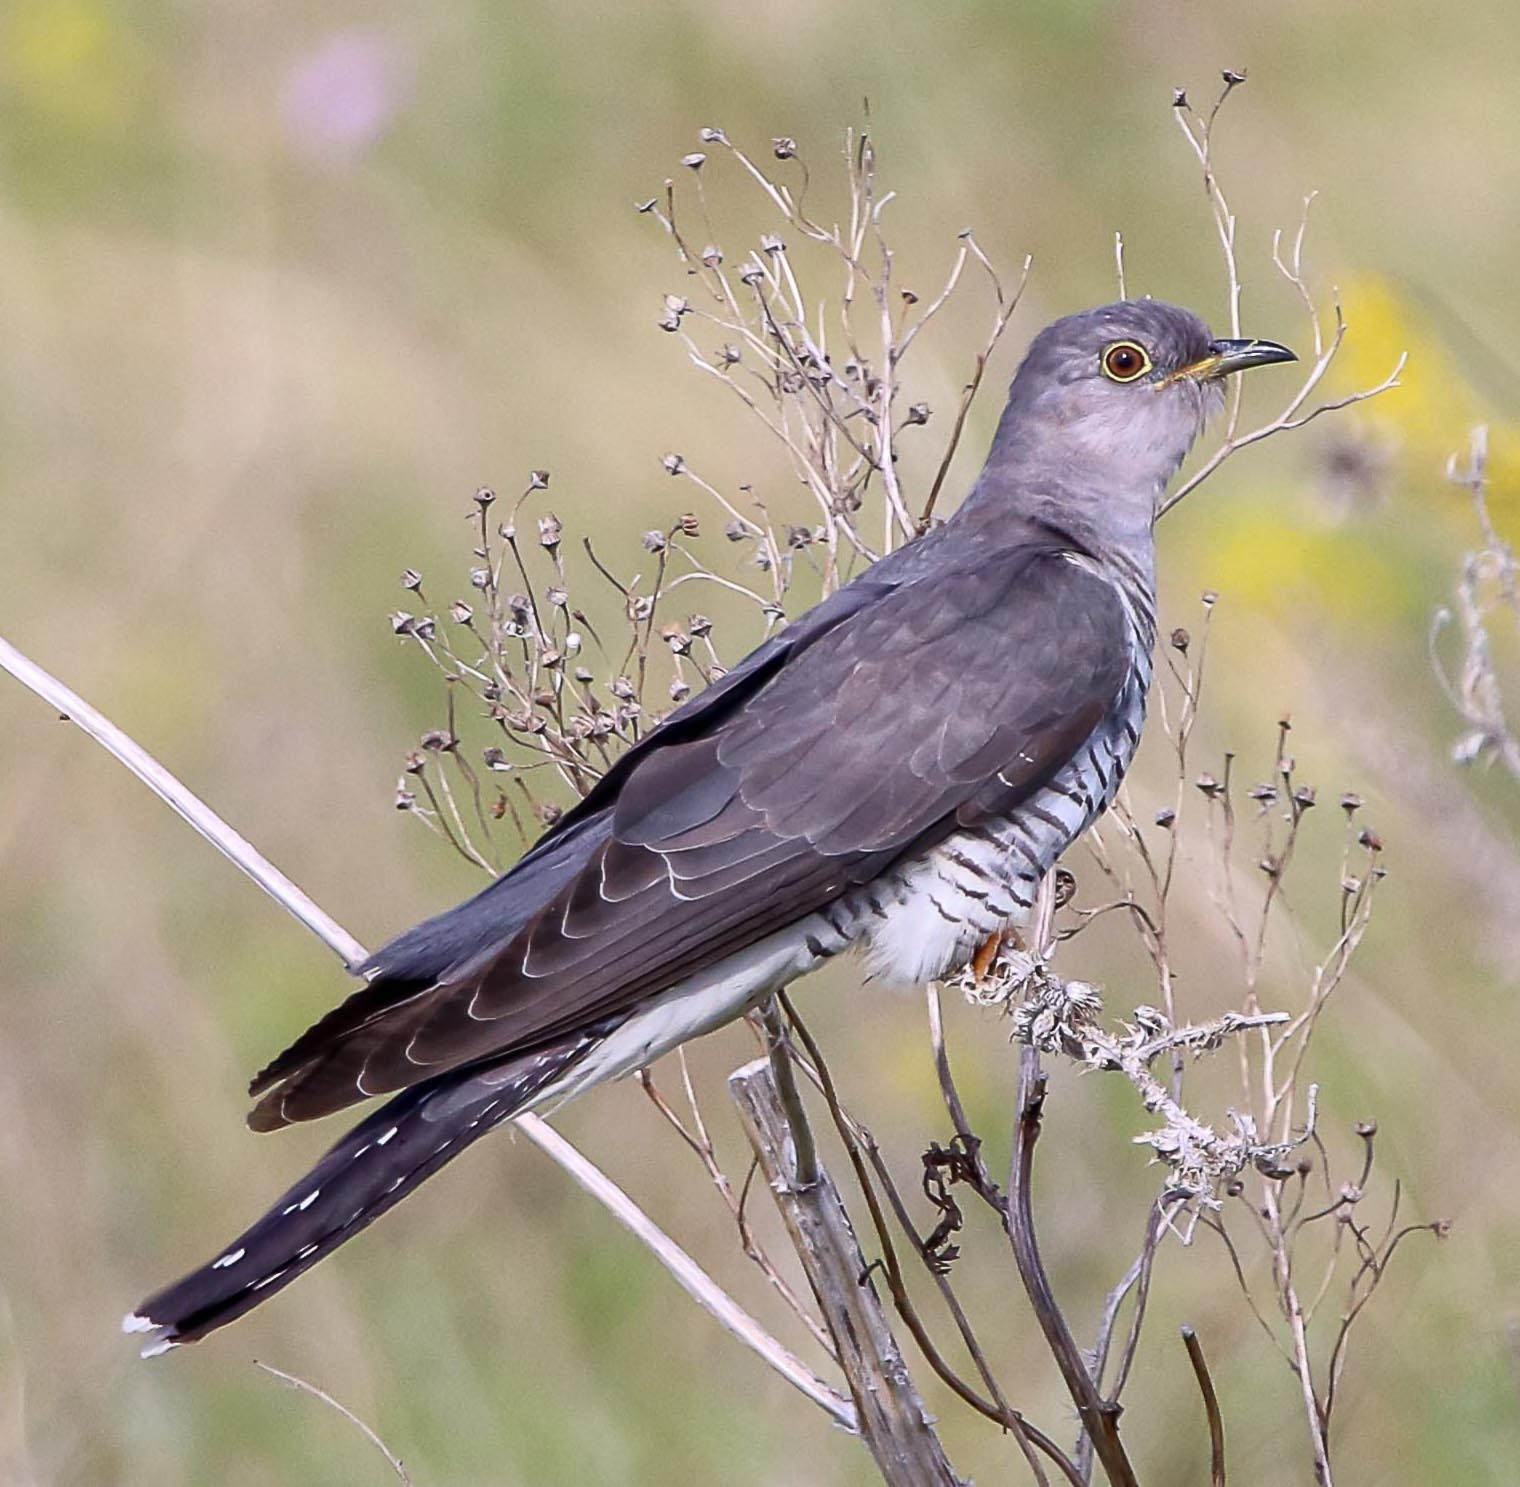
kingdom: Animalia
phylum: Chordata
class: Aves
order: Cuculiformes
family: Cuculidae
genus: Cuculus
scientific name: Cuculus canorus
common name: Common cuckoo
